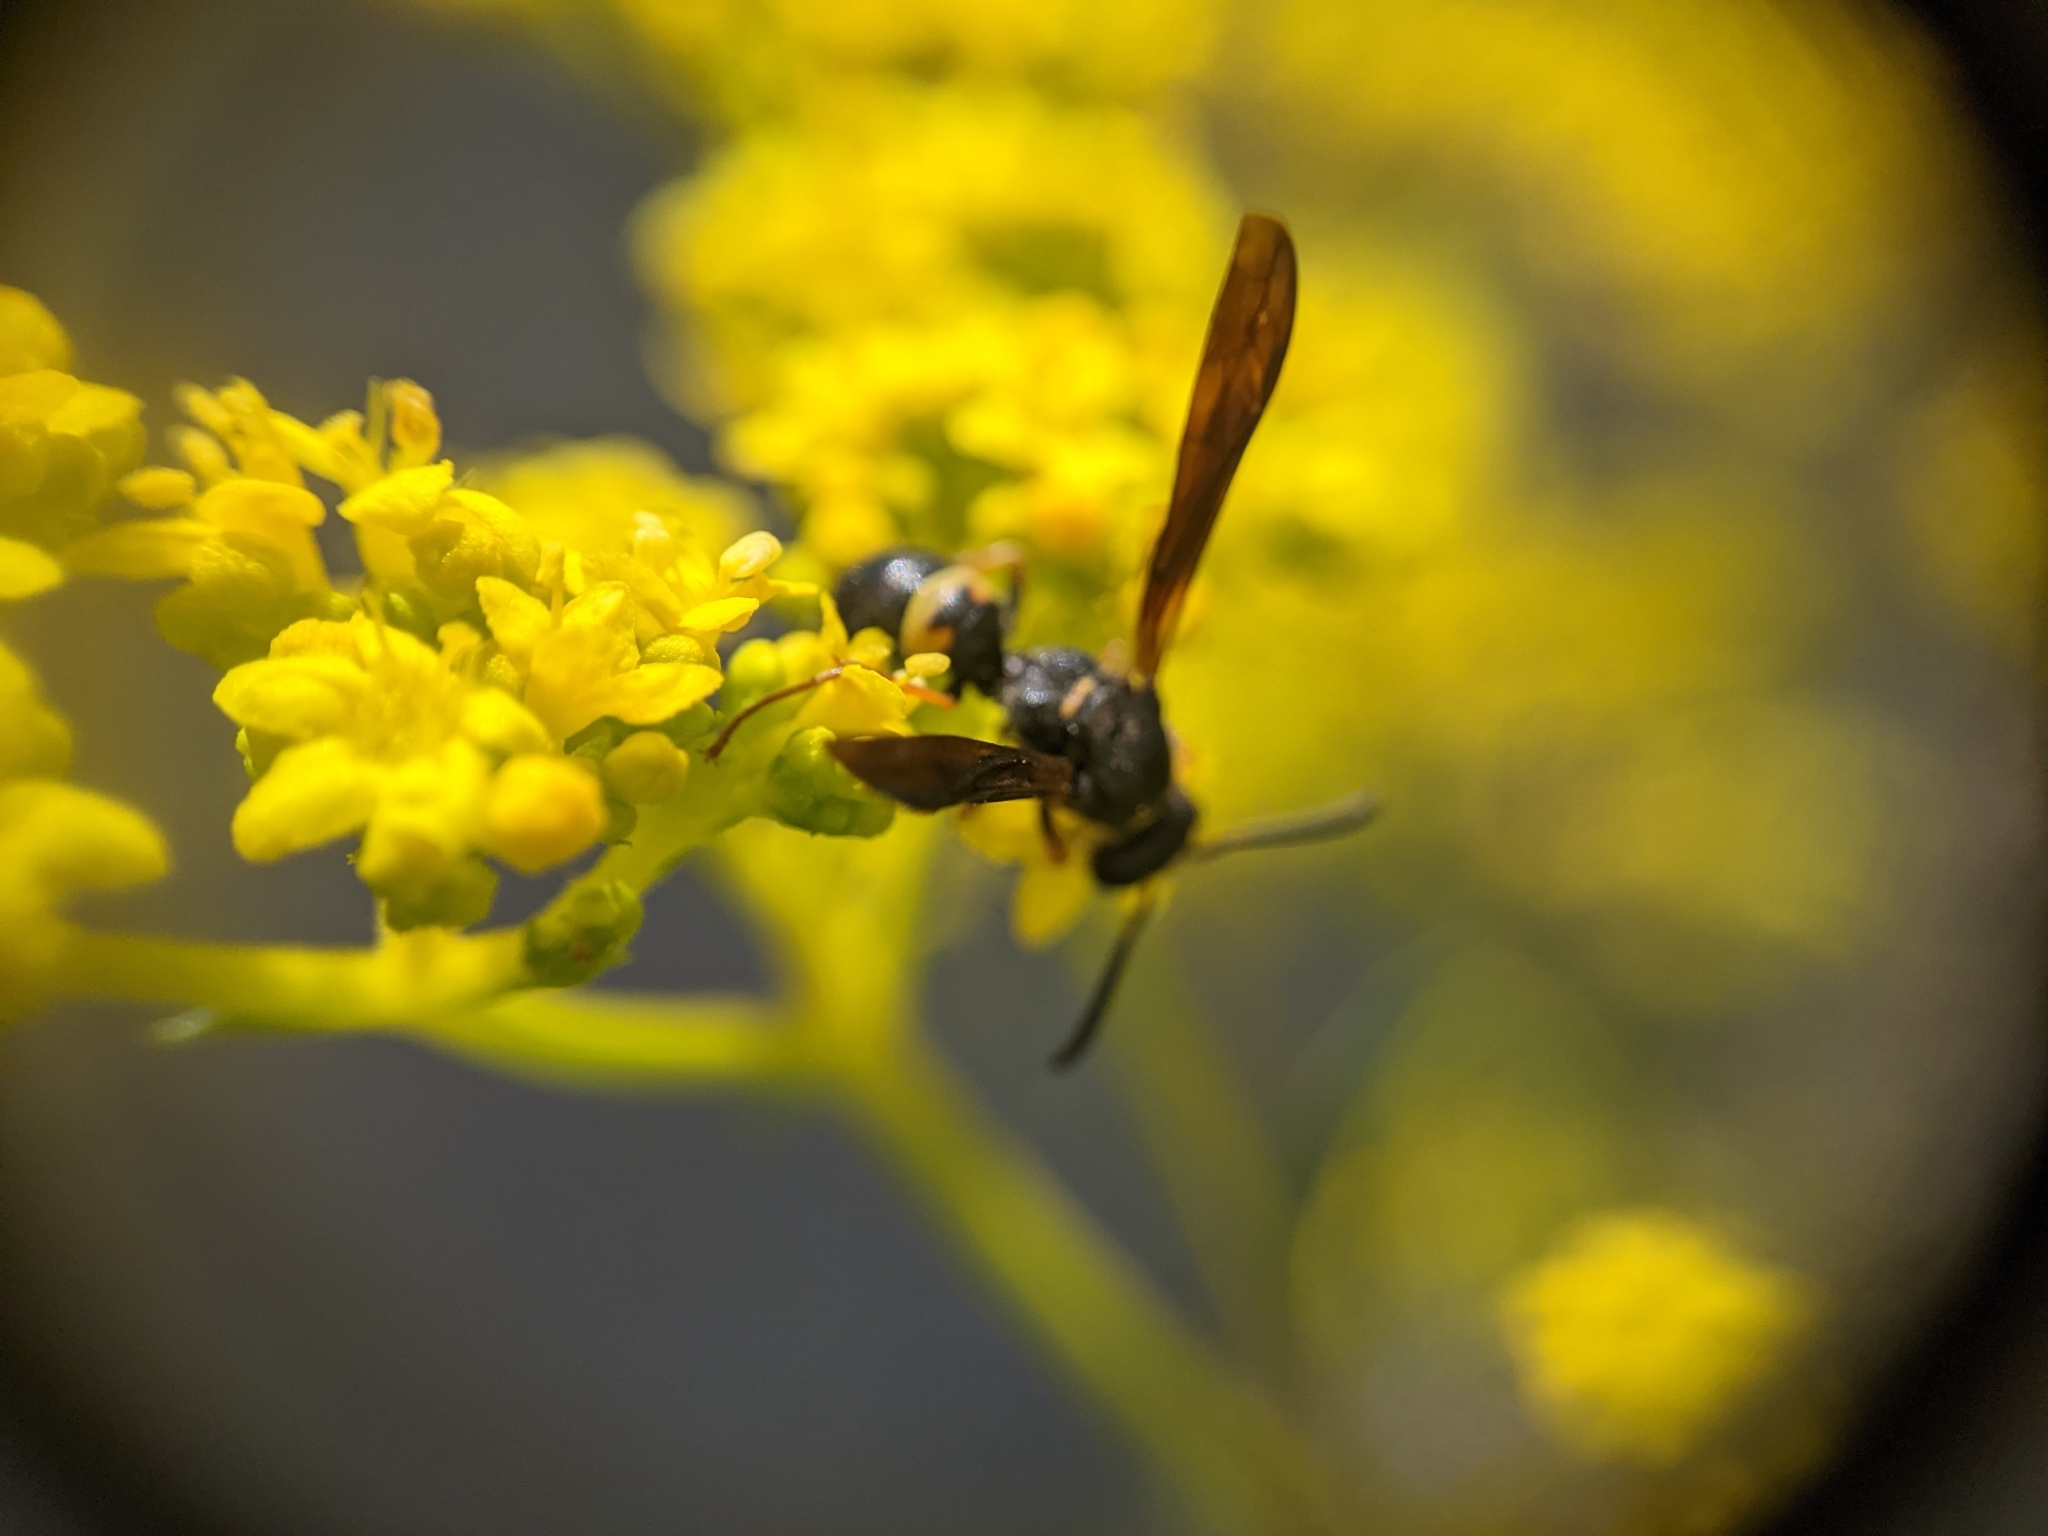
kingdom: Animalia
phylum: Arthropoda
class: Insecta
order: Hymenoptera
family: Vespidae
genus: Ancistrocerus
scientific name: Ancistrocerus unifasciatus
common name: One-banded mason wasp
